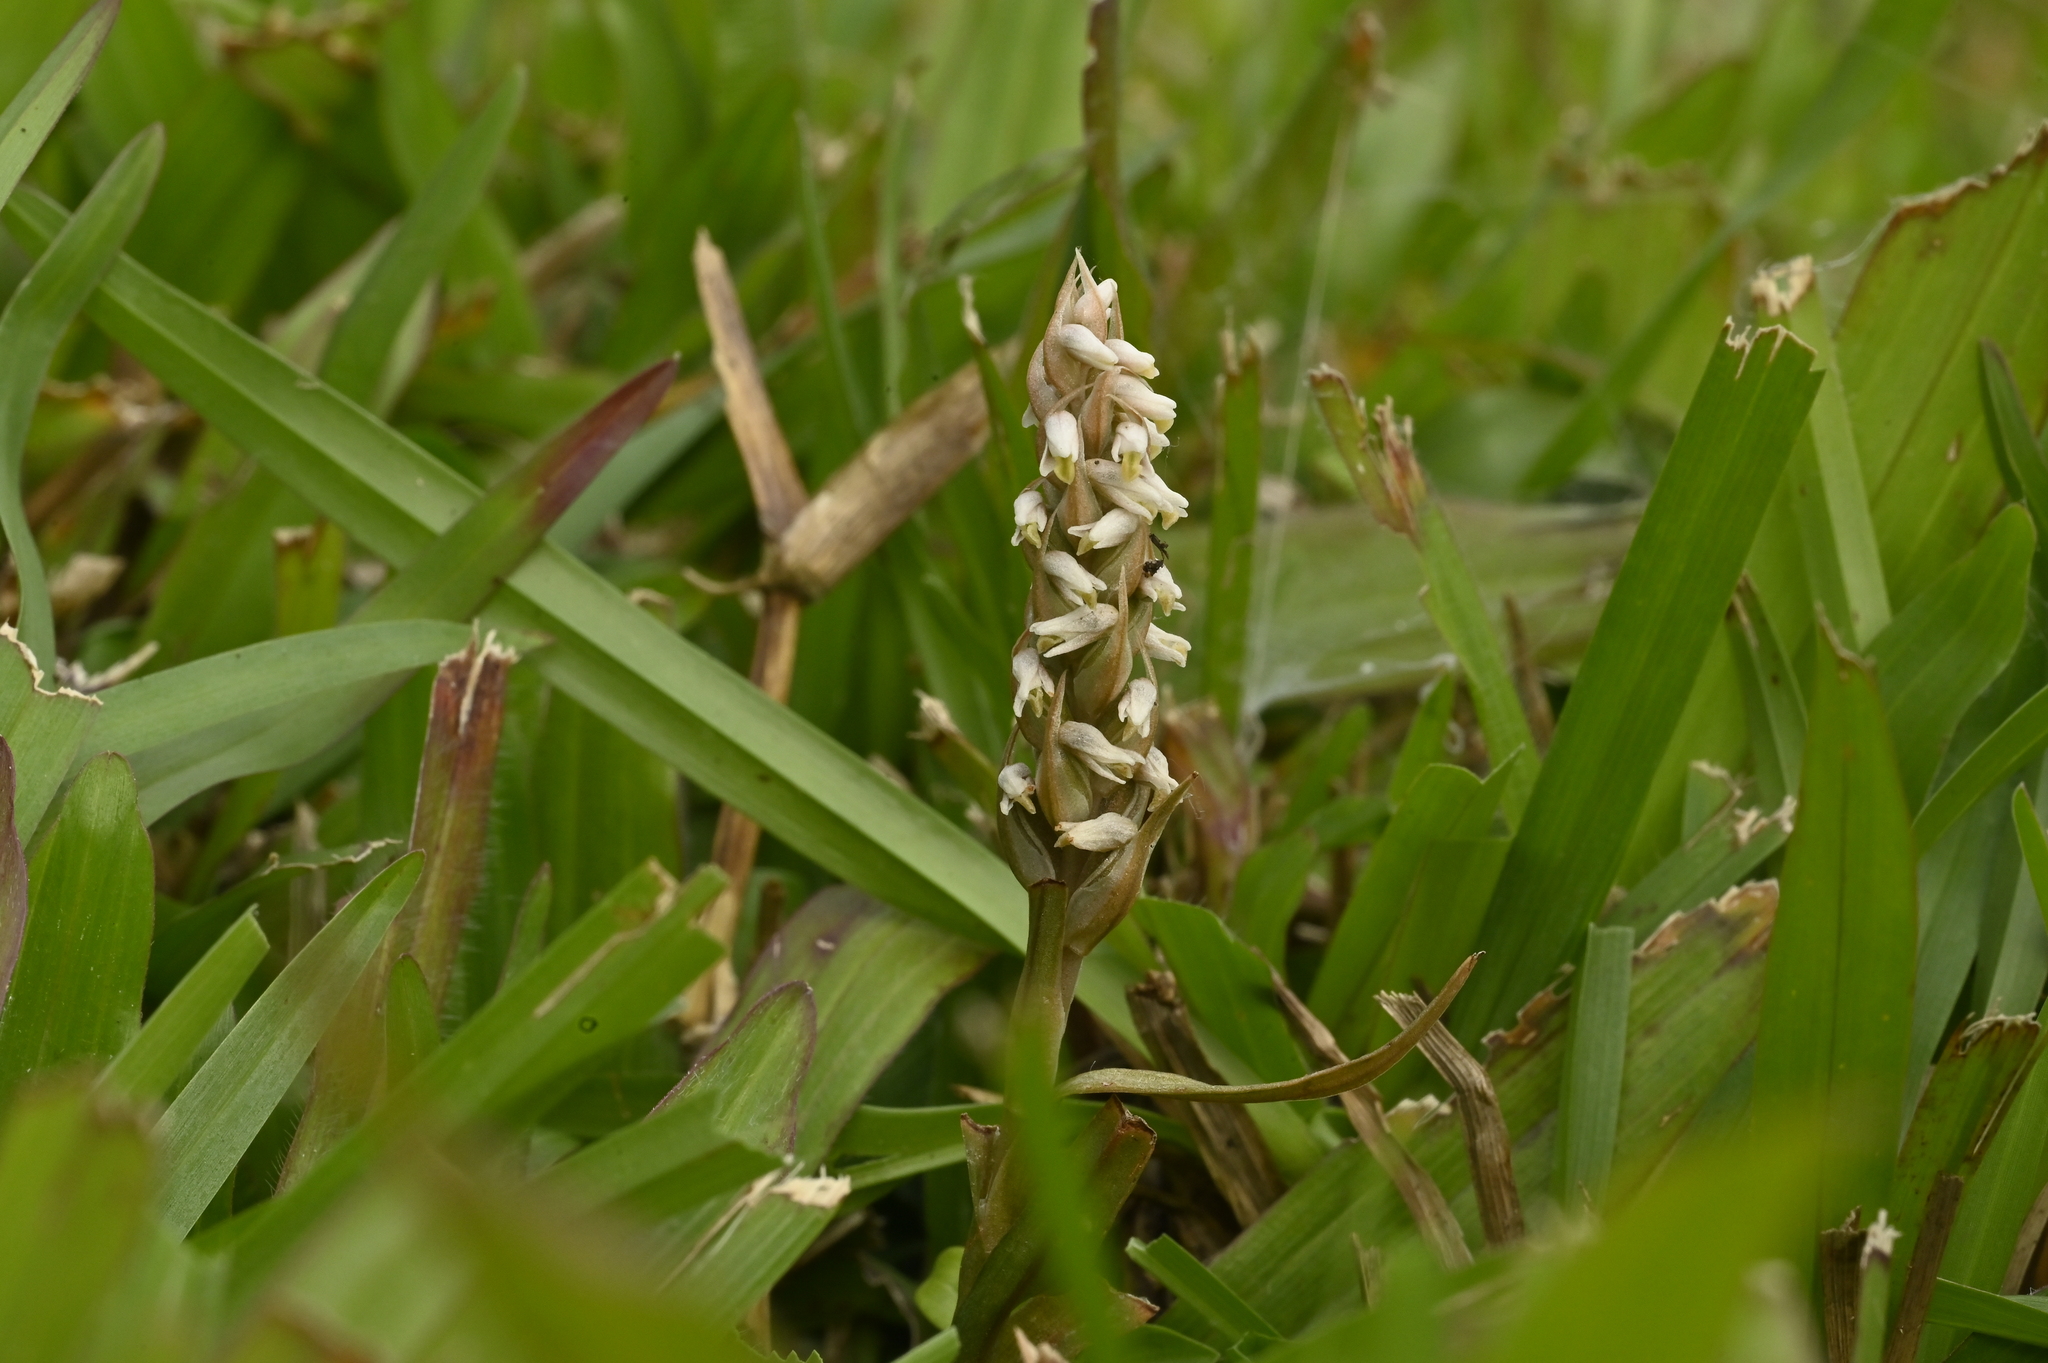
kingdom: Plantae
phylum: Tracheophyta
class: Liliopsida
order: Asparagales
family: Orchidaceae
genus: Zeuxine
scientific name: Zeuxine strateumatica
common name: Soldier's orchid
